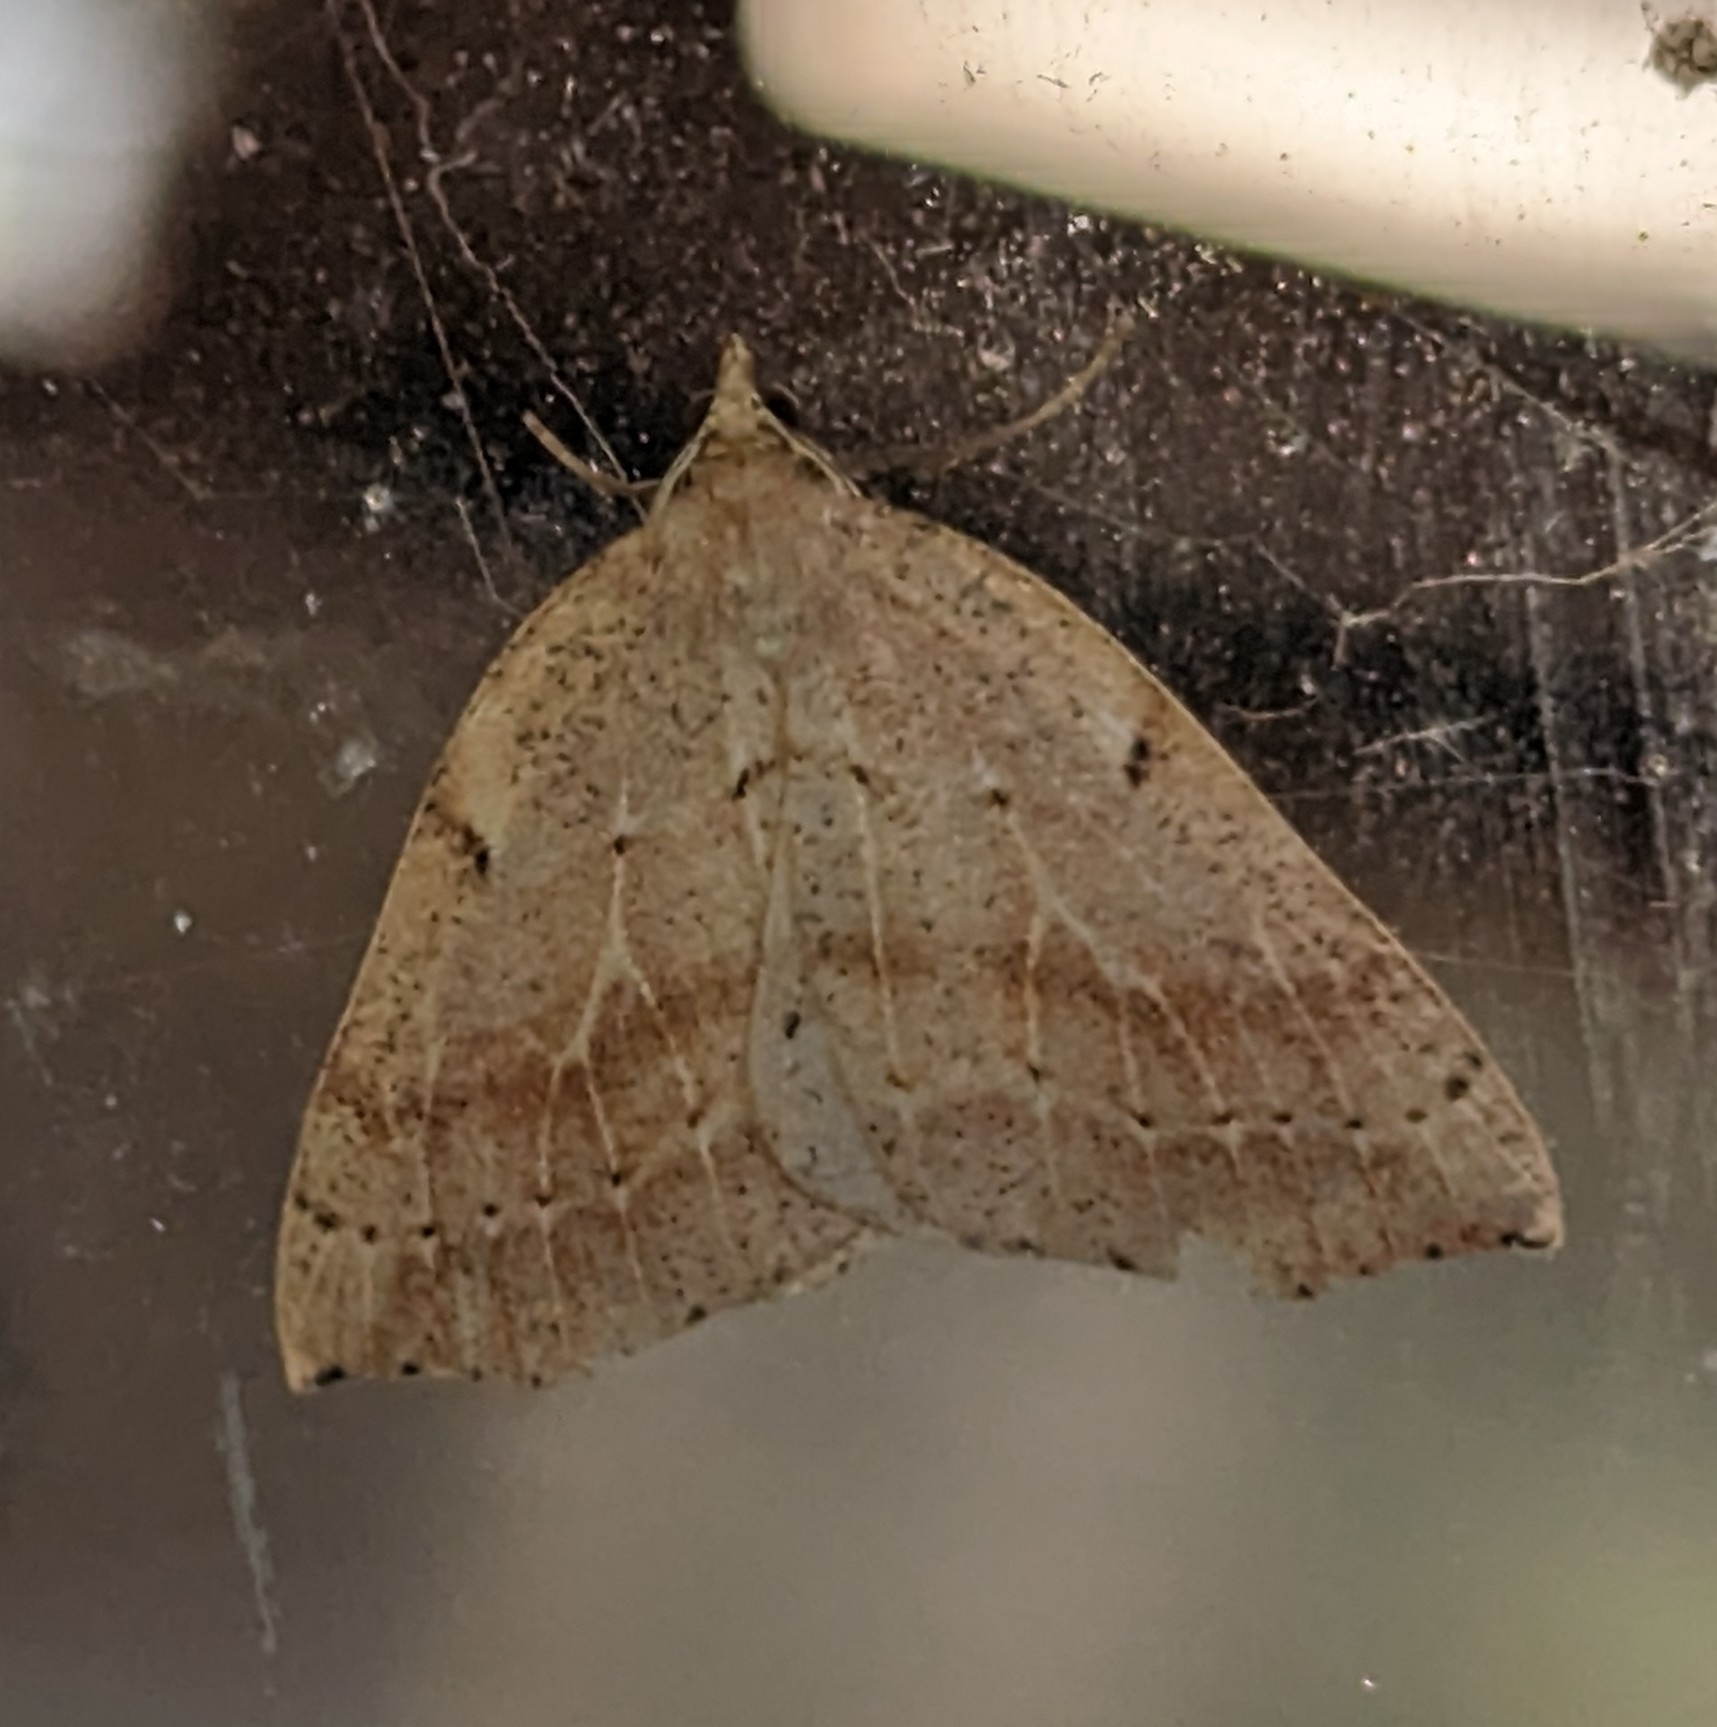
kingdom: Animalia
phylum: Arthropoda
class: Insecta
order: Lepidoptera
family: Geometridae
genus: Thallophaga
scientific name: Thallophaga hyperborea
